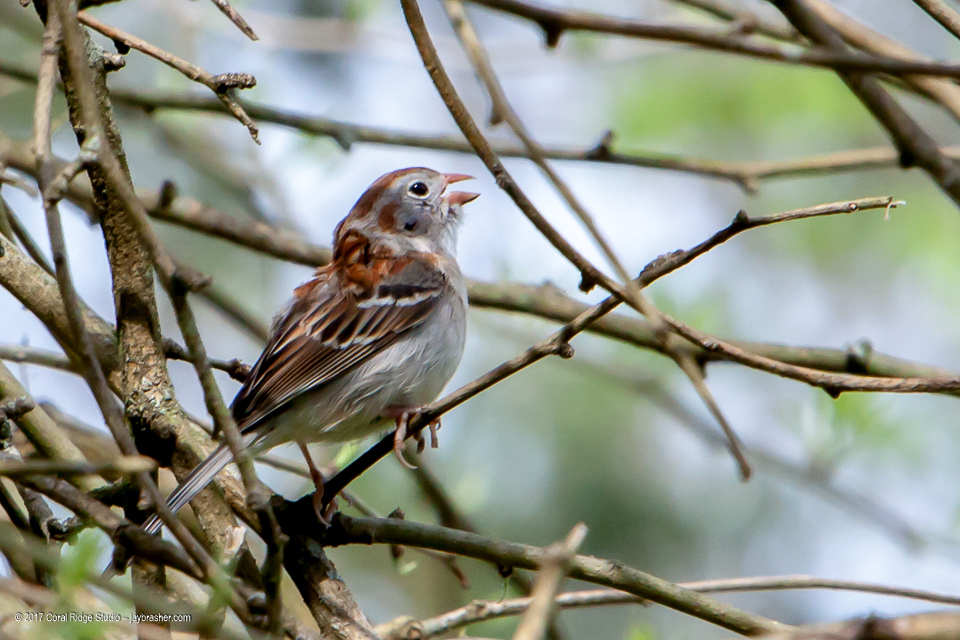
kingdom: Animalia
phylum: Chordata
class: Aves
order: Passeriformes
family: Passerellidae
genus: Spizella
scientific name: Spizella pusilla
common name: Field sparrow
